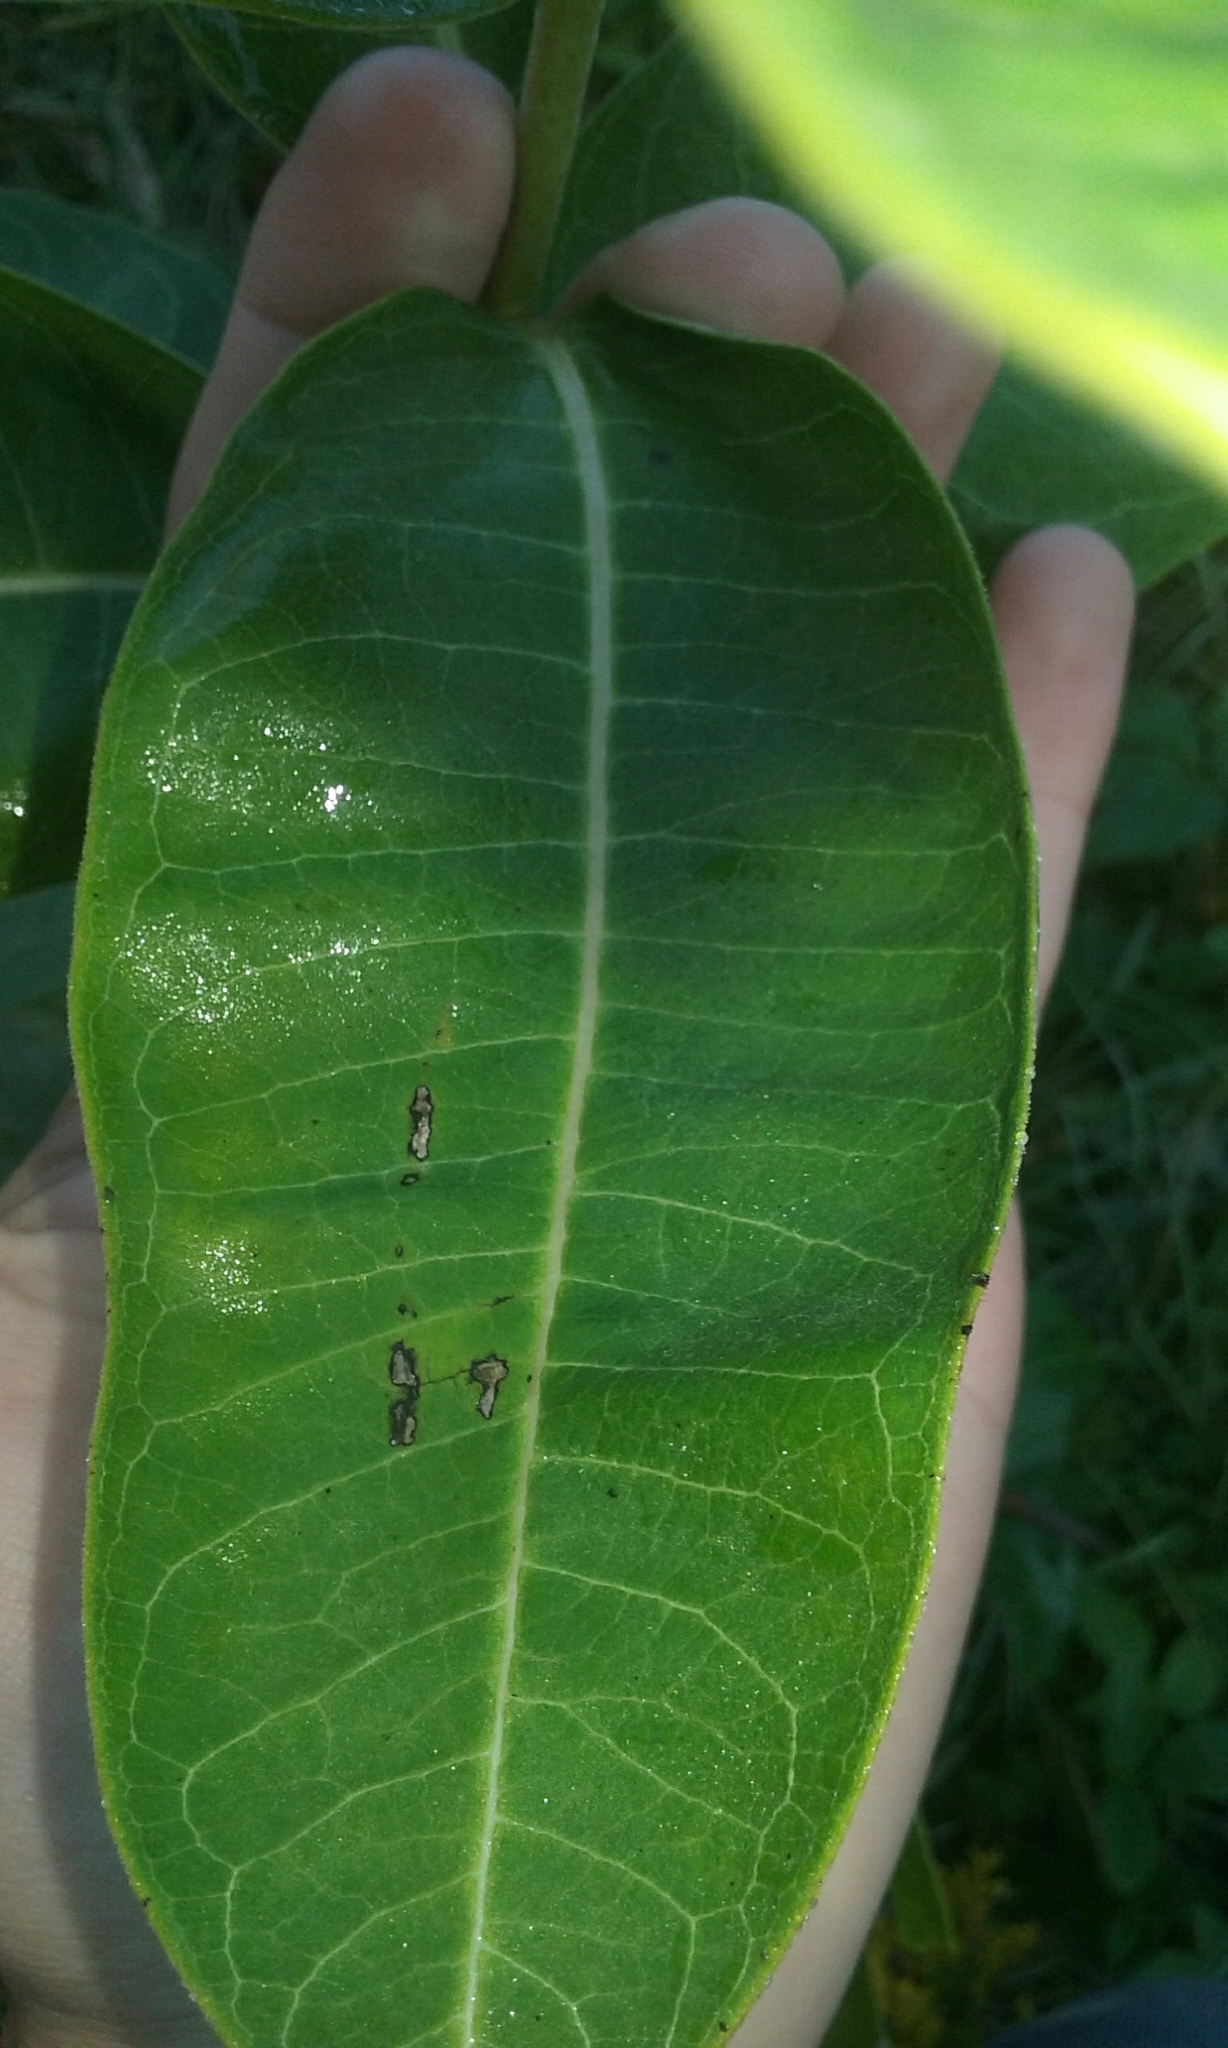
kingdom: Plantae
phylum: Tracheophyta
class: Magnoliopsida
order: Gentianales
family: Apocynaceae
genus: Asclepias
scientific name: Asclepias syriaca
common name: Common milkweed
